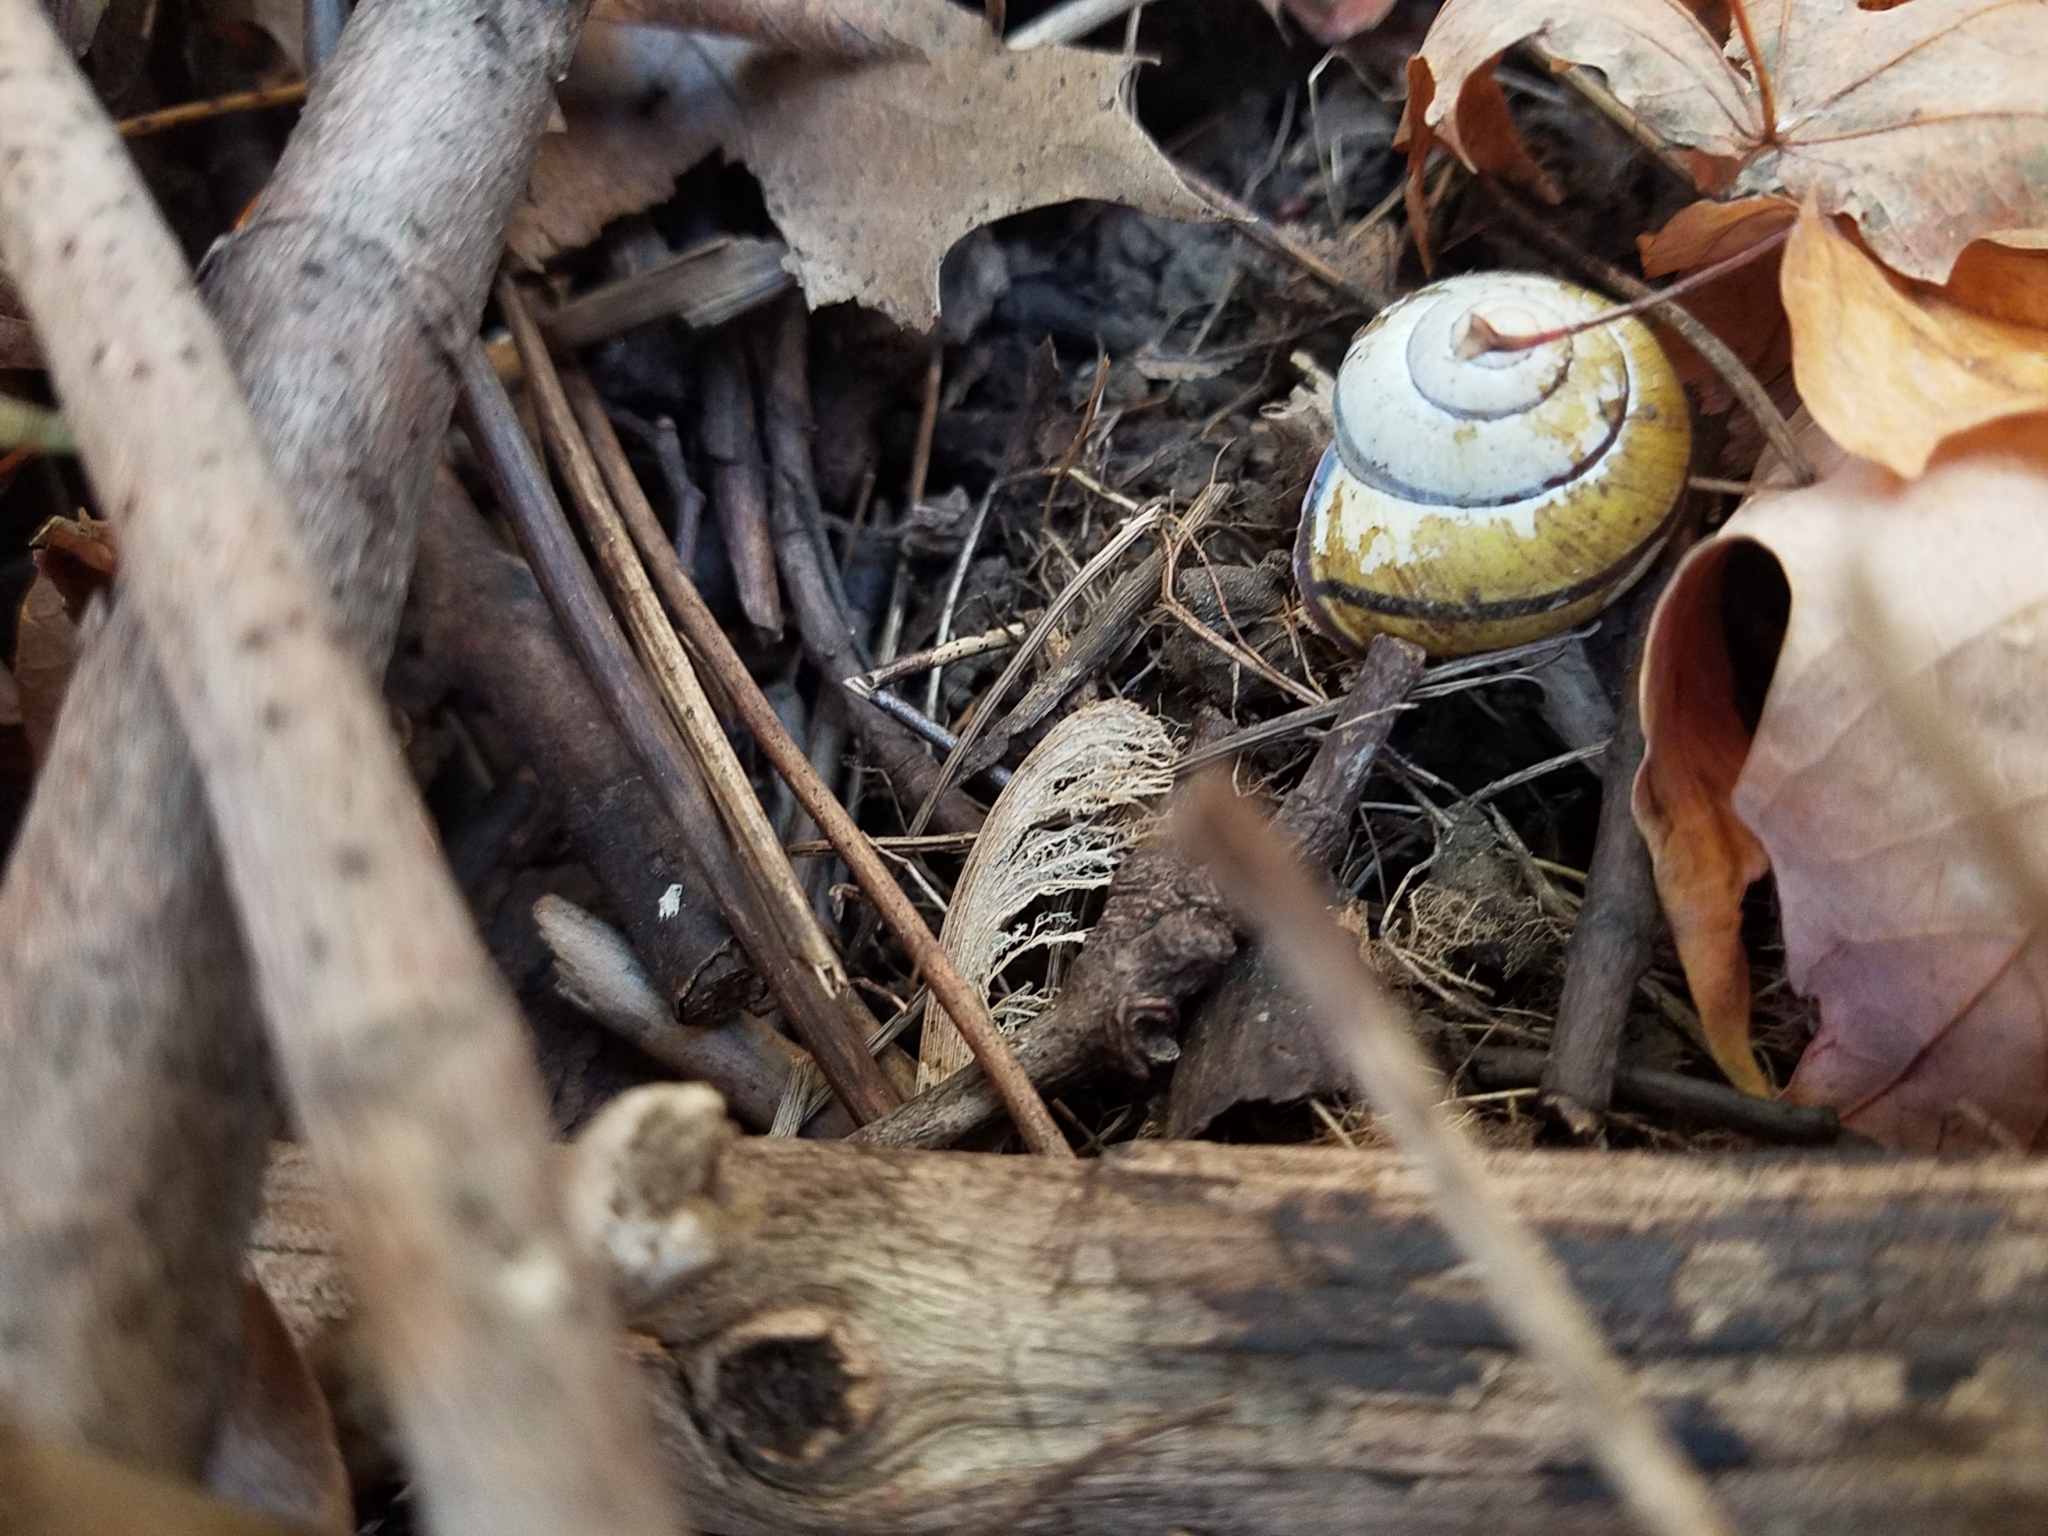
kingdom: Animalia
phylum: Mollusca
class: Gastropoda
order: Stylommatophora
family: Helicidae
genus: Cepaea
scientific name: Cepaea nemoralis
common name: Grovesnail
